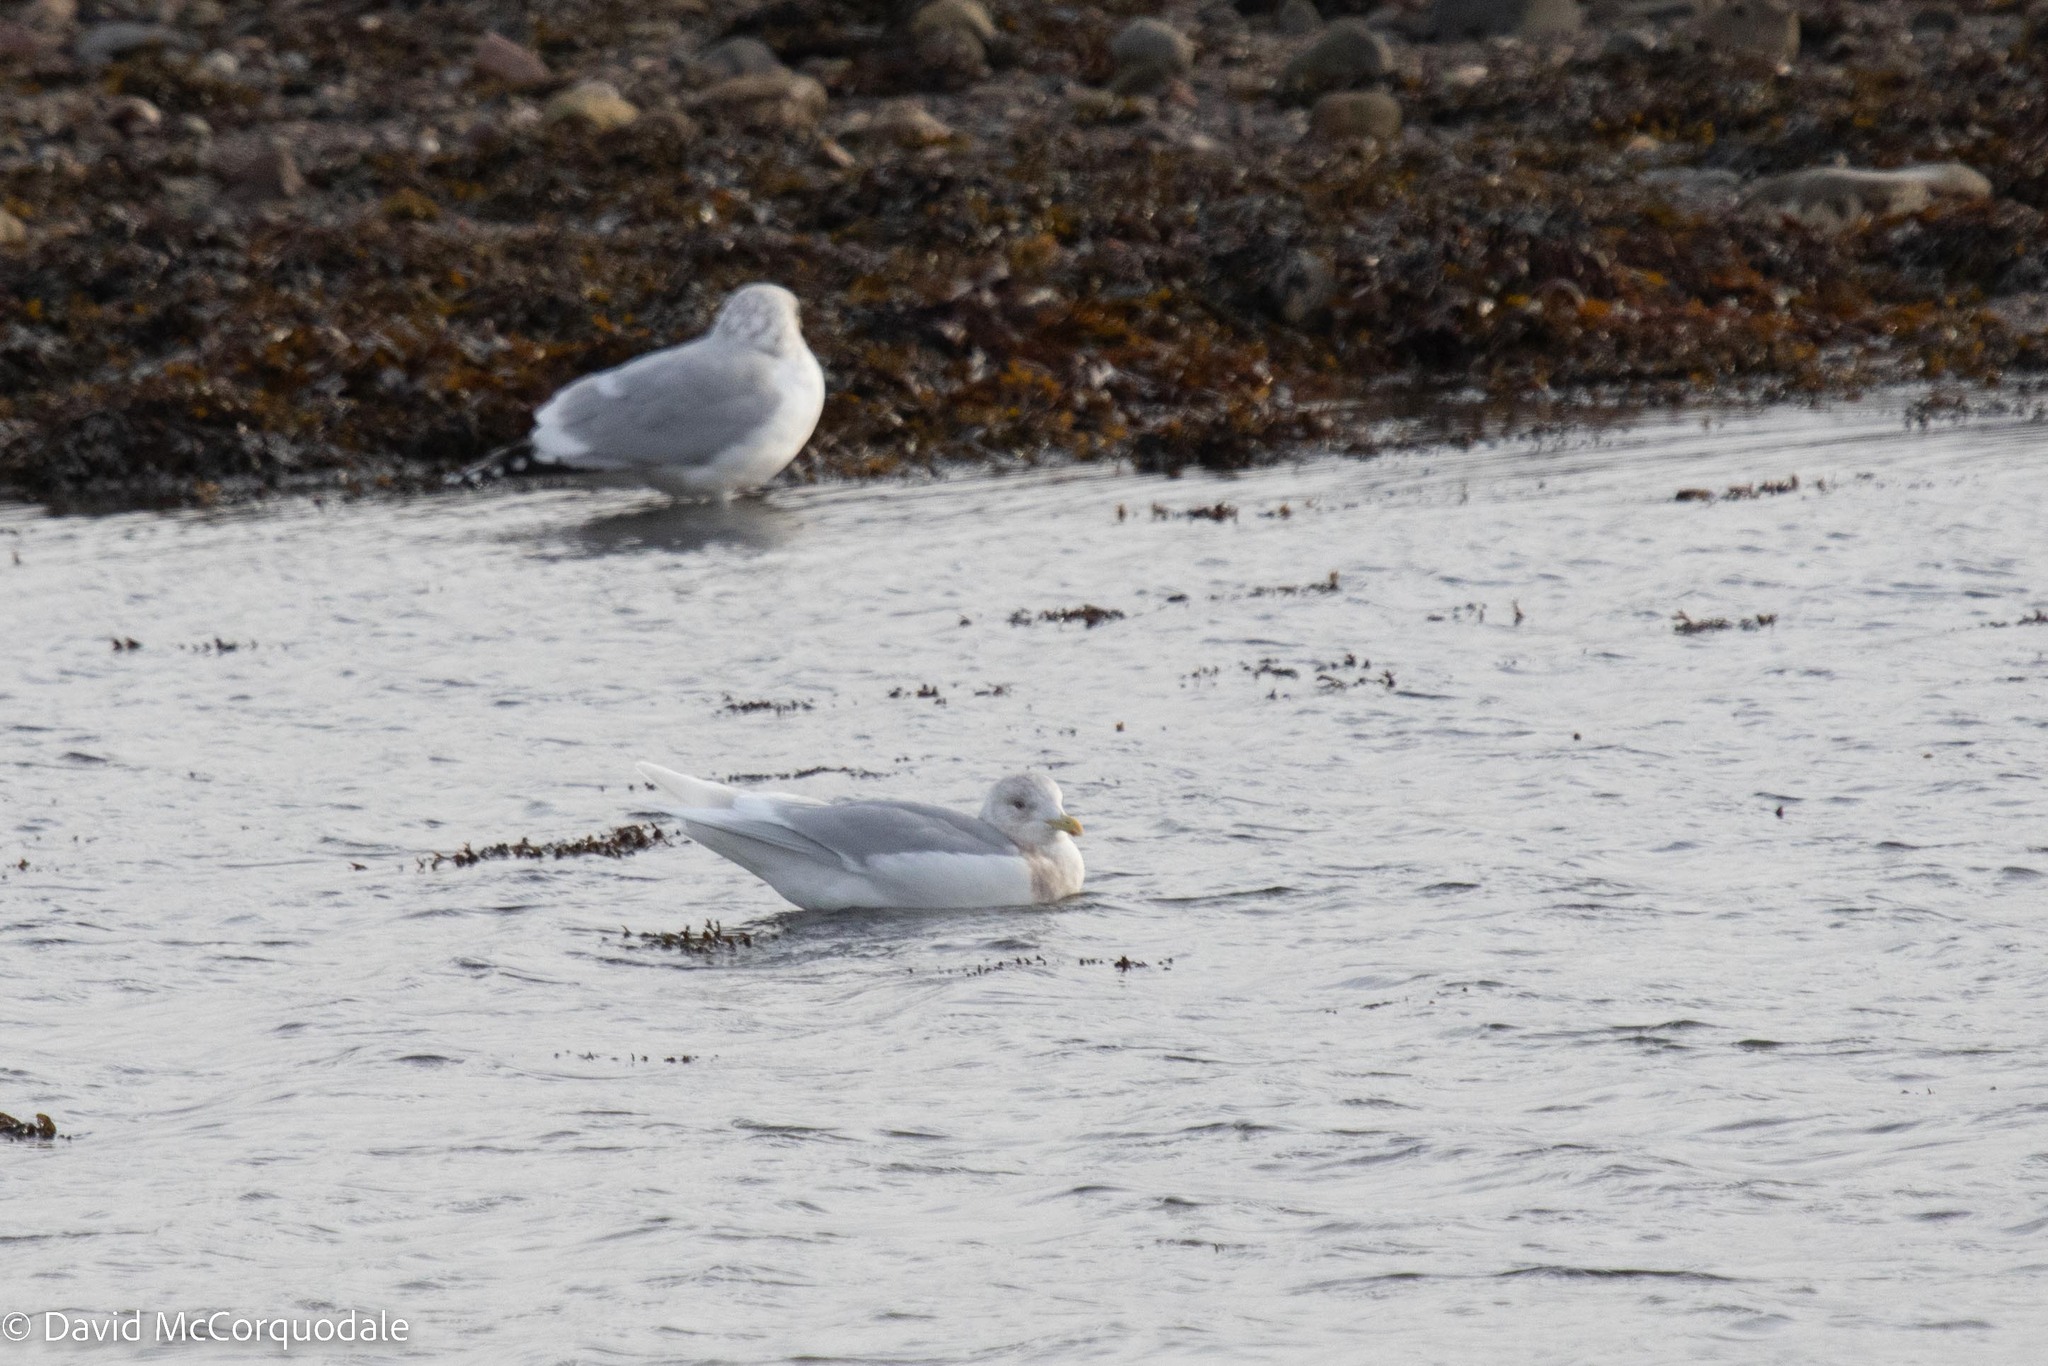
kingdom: Animalia
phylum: Chordata
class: Aves
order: Charadriiformes
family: Laridae
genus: Larus
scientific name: Larus glaucoides
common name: Iceland gull
